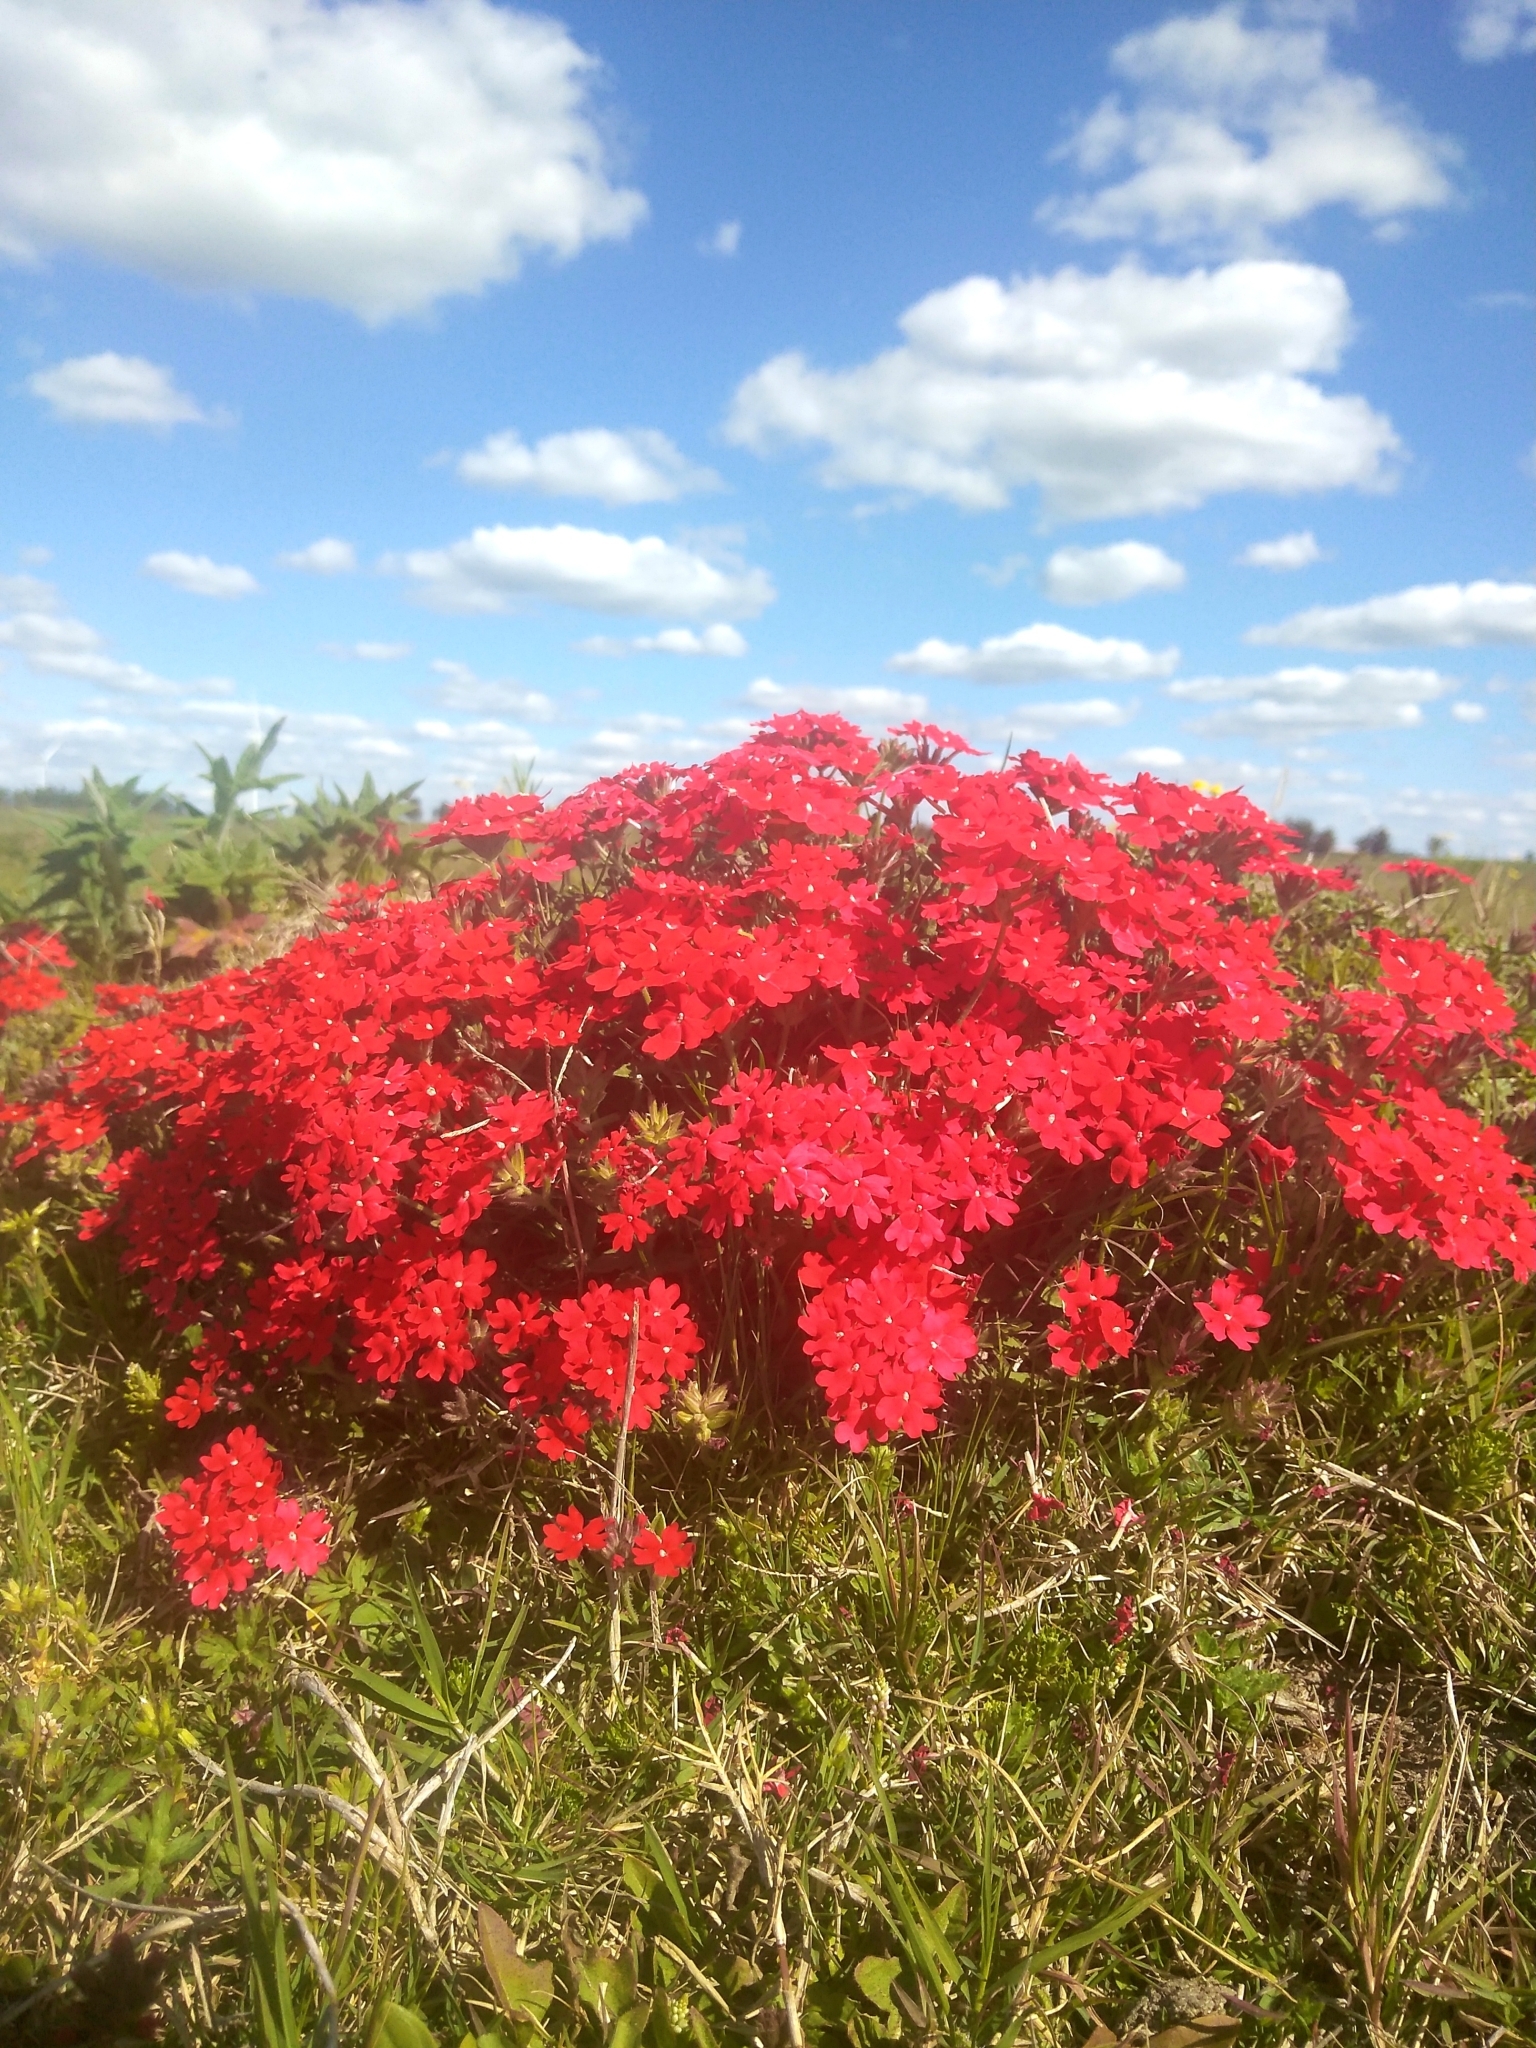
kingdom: Plantae
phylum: Tracheophyta
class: Magnoliopsida
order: Lamiales
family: Verbenaceae
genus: Verbena
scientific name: Verbena peruviana
